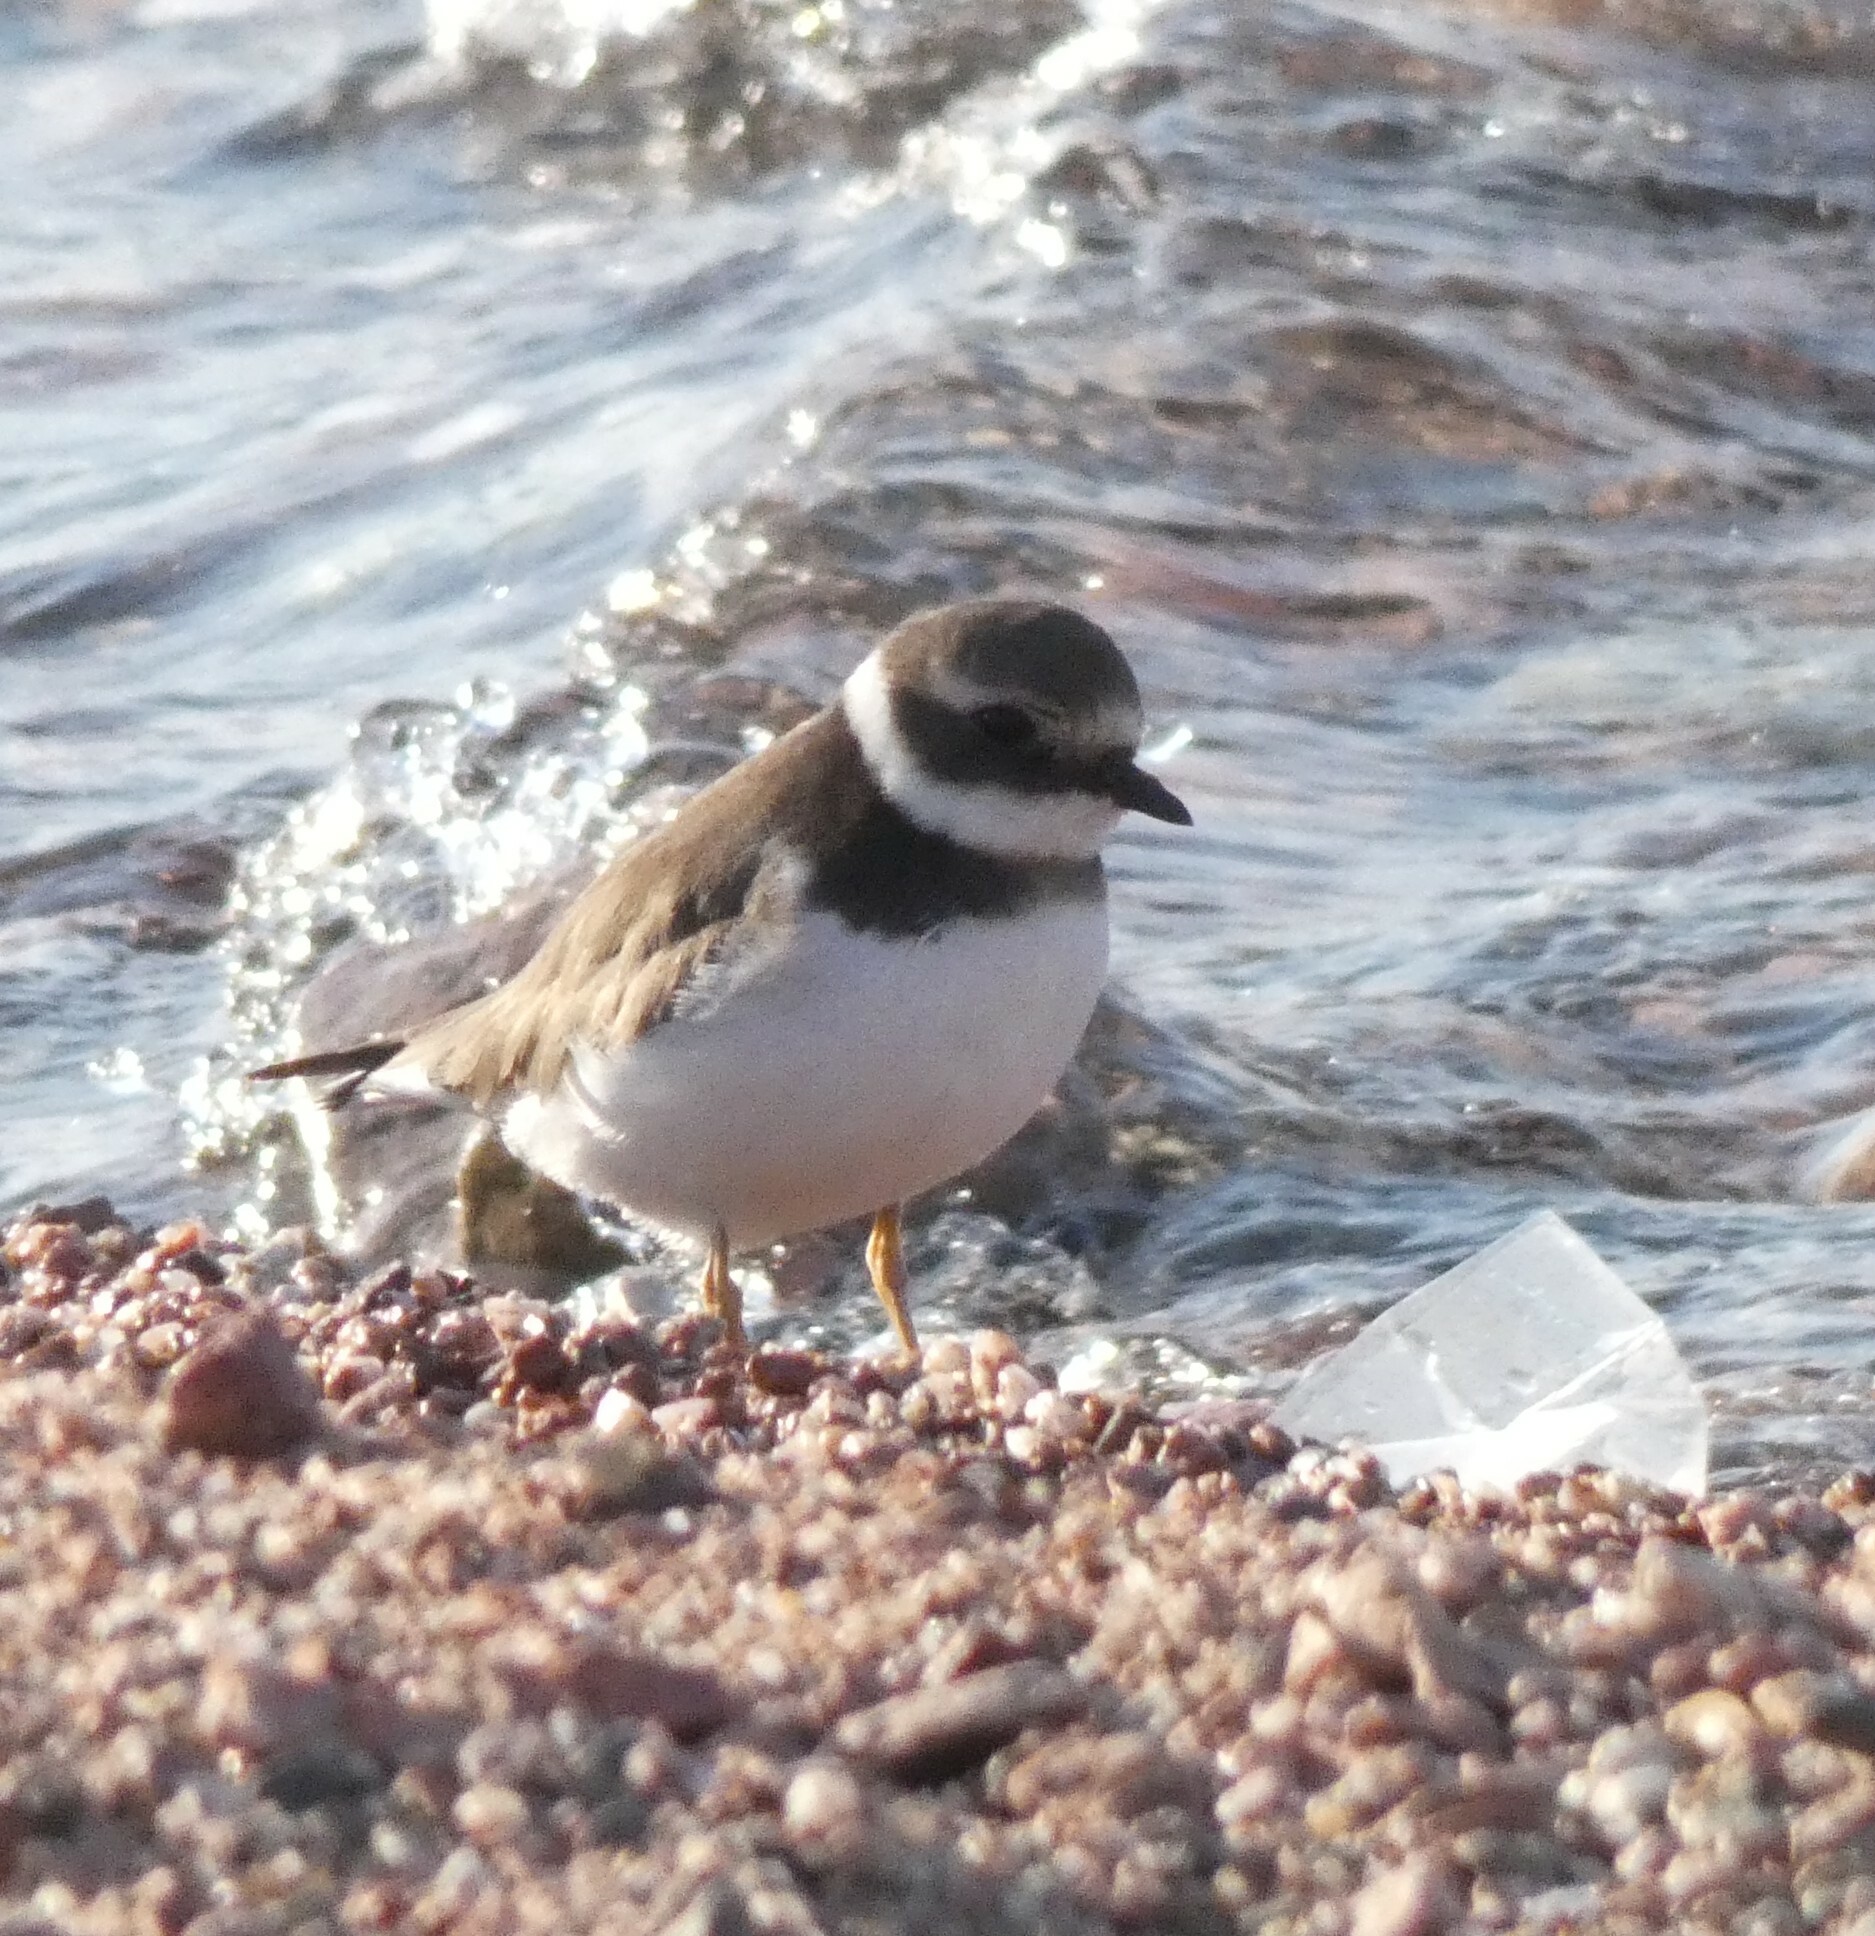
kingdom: Animalia
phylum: Chordata
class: Aves
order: Charadriiformes
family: Charadriidae
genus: Charadrius
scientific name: Charadrius hiaticula
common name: Common ringed plover
